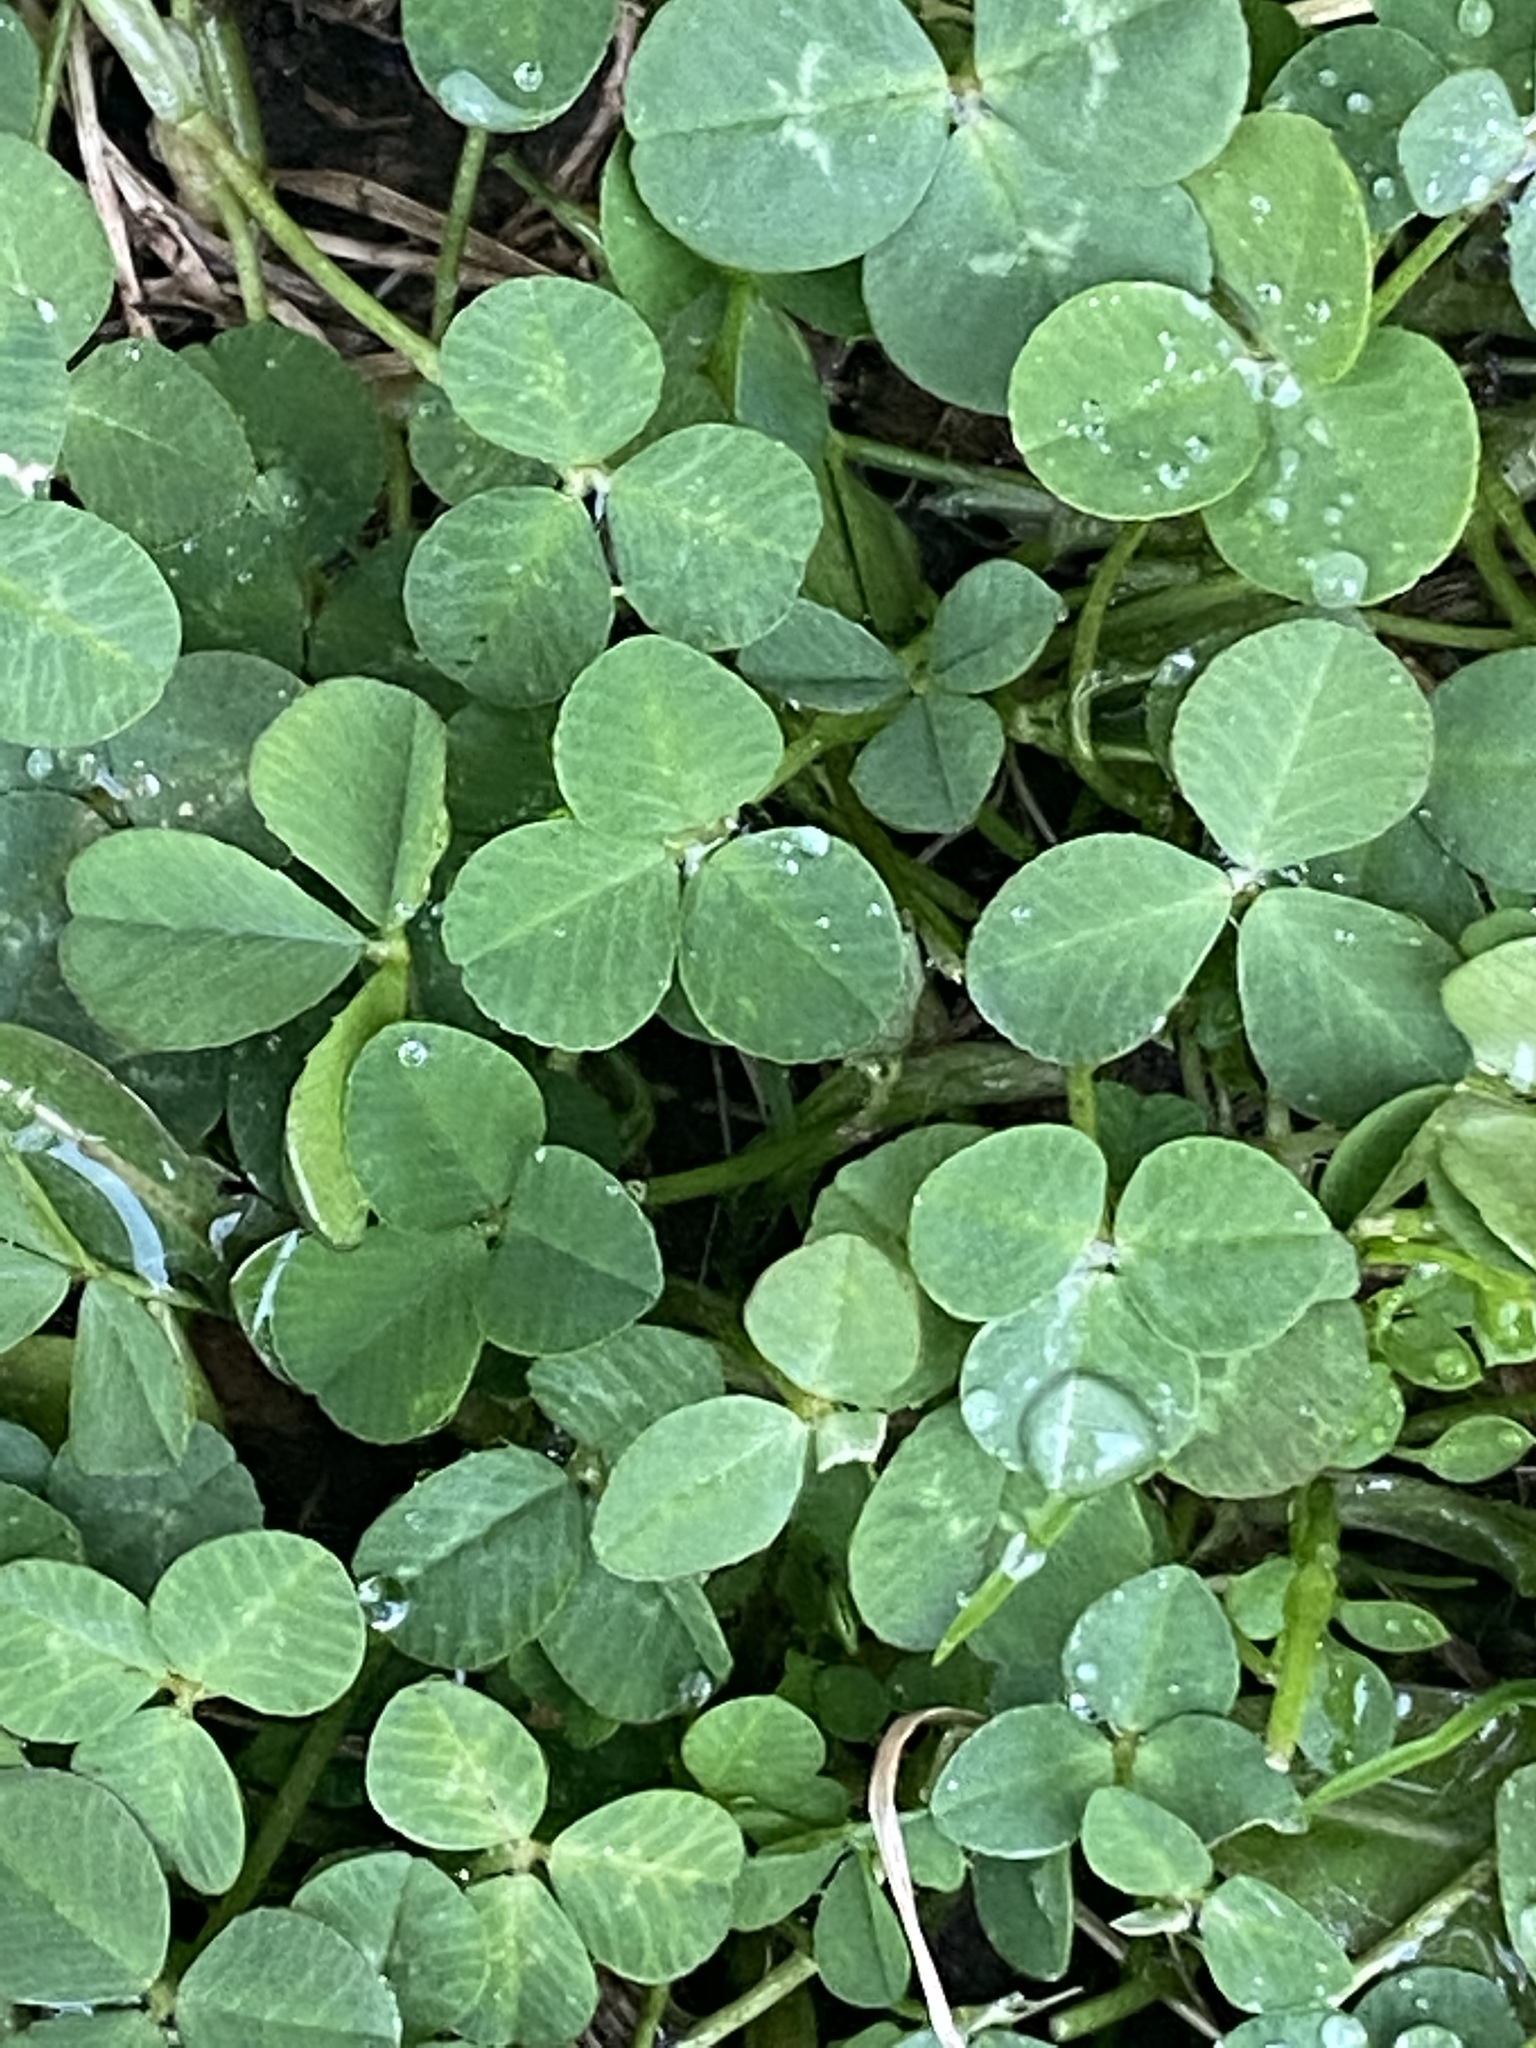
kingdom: Plantae
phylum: Tracheophyta
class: Magnoliopsida
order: Fabales
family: Fabaceae
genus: Trifolium
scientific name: Trifolium repens
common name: White clover
